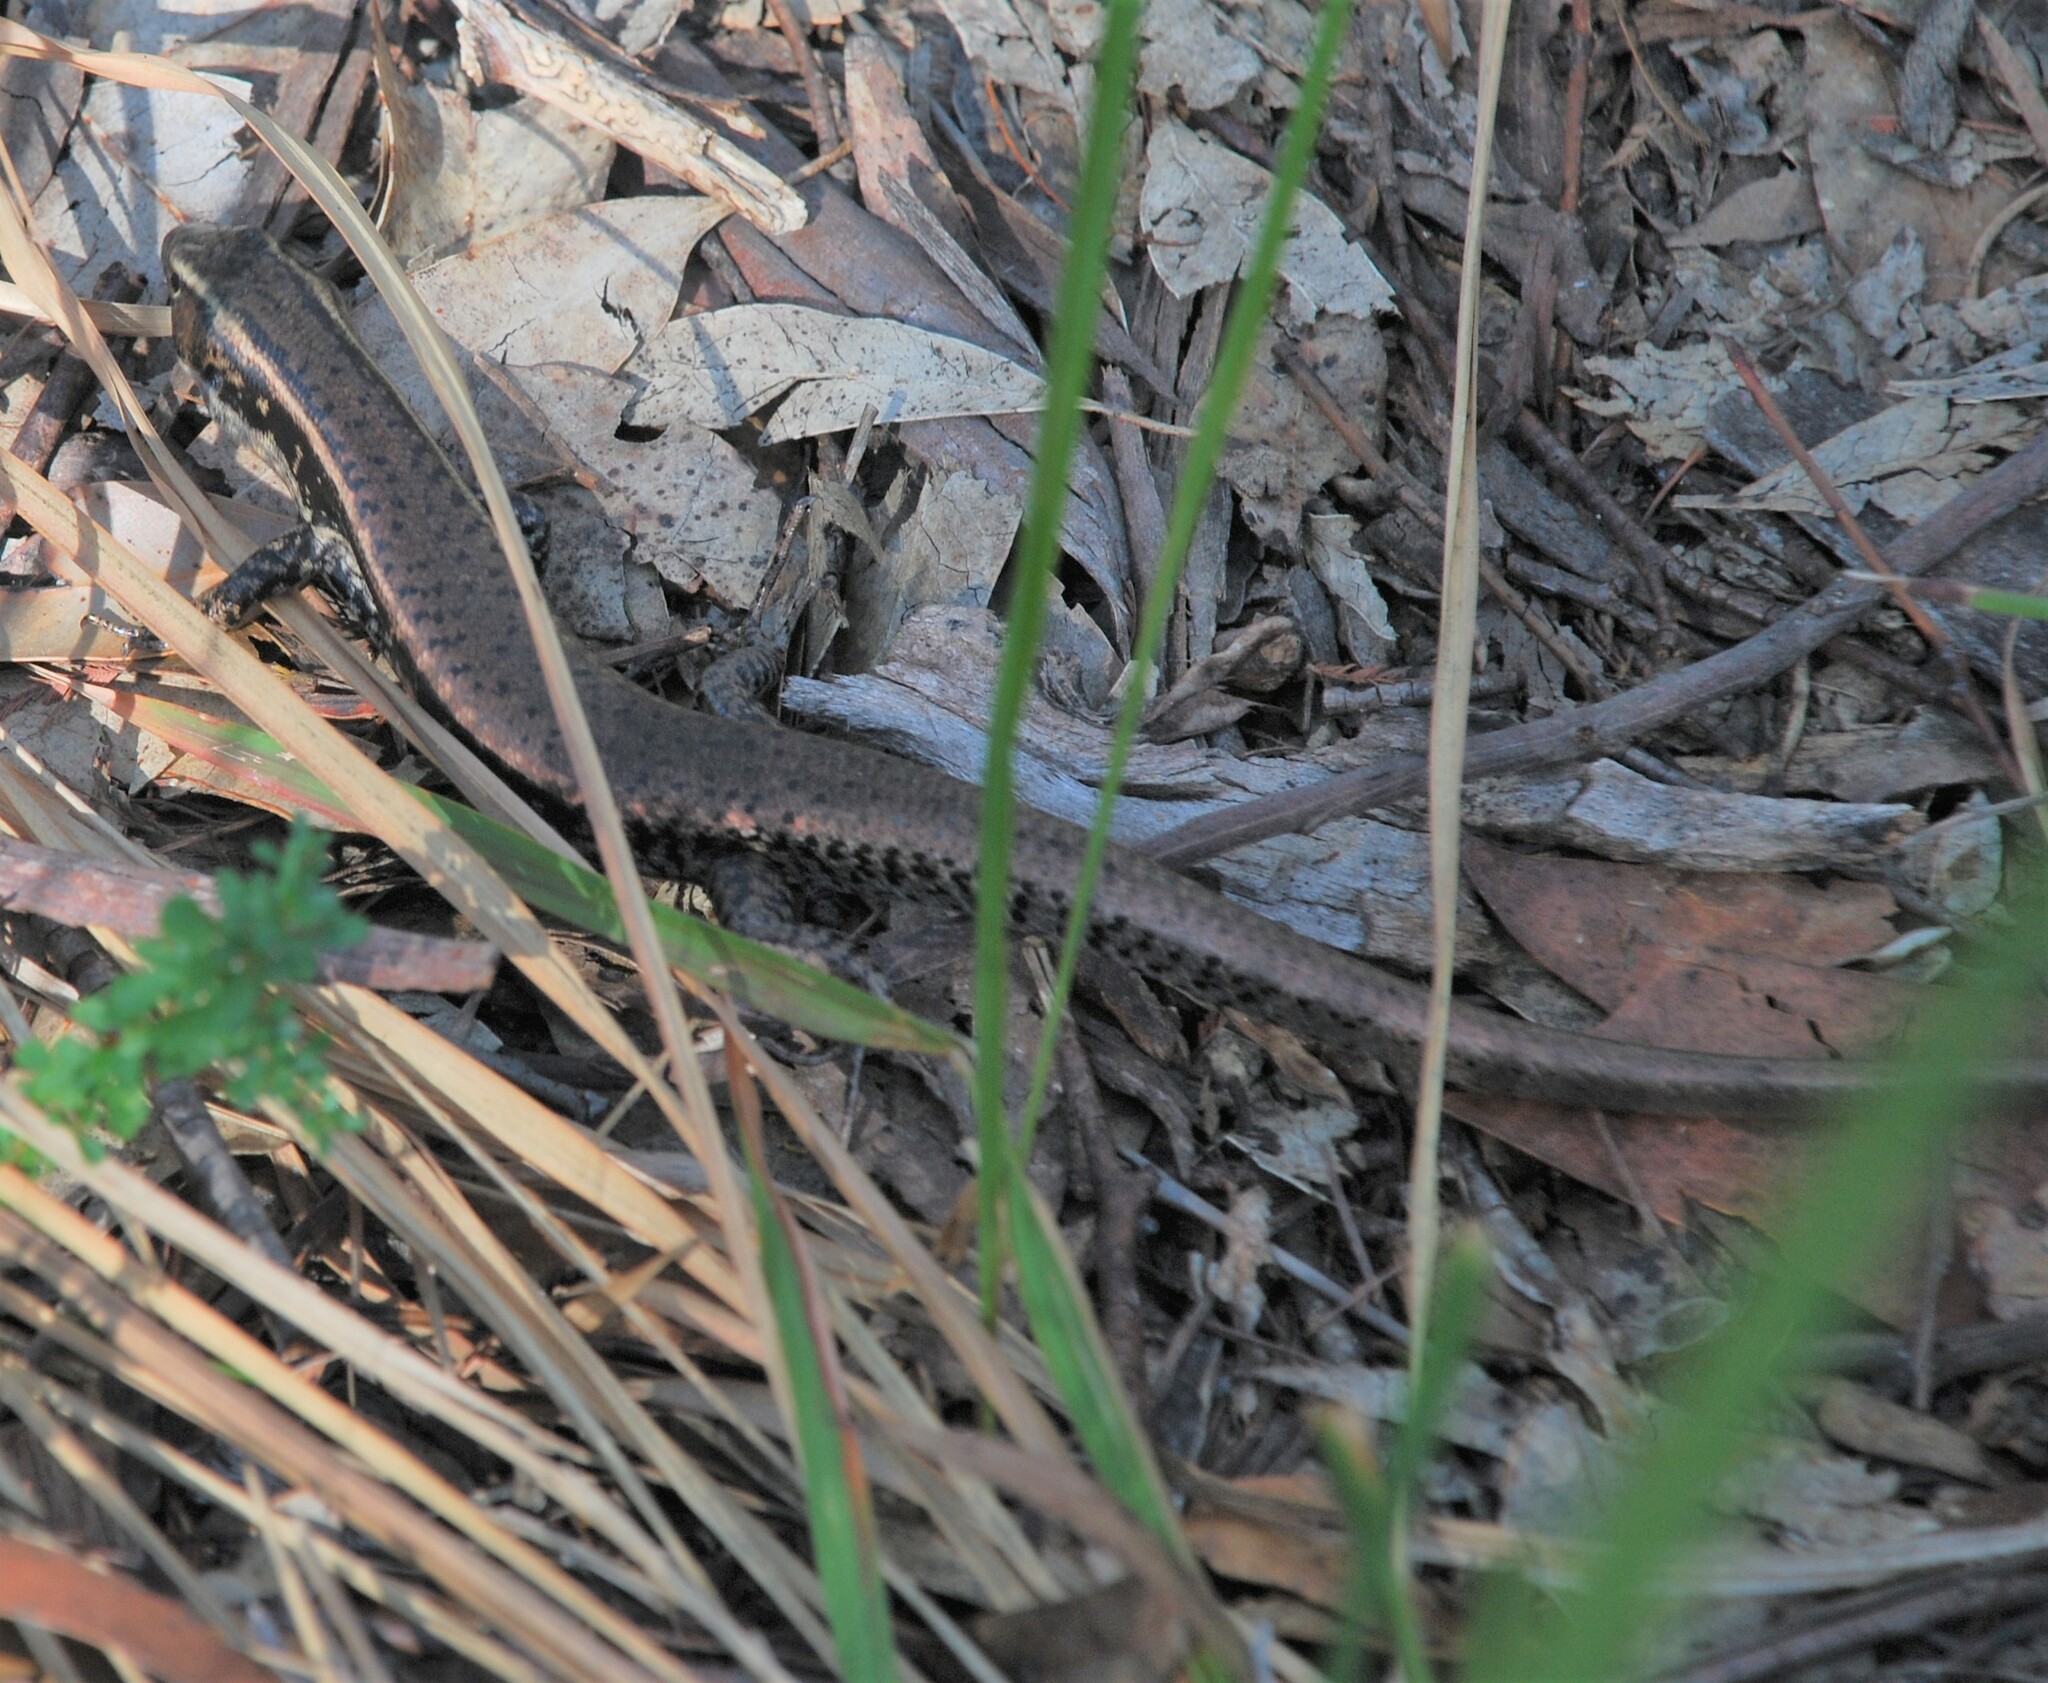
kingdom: Animalia
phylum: Chordata
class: Squamata
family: Scincidae
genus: Eulamprus
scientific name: Eulamprus quoyii
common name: Eastern water skink
